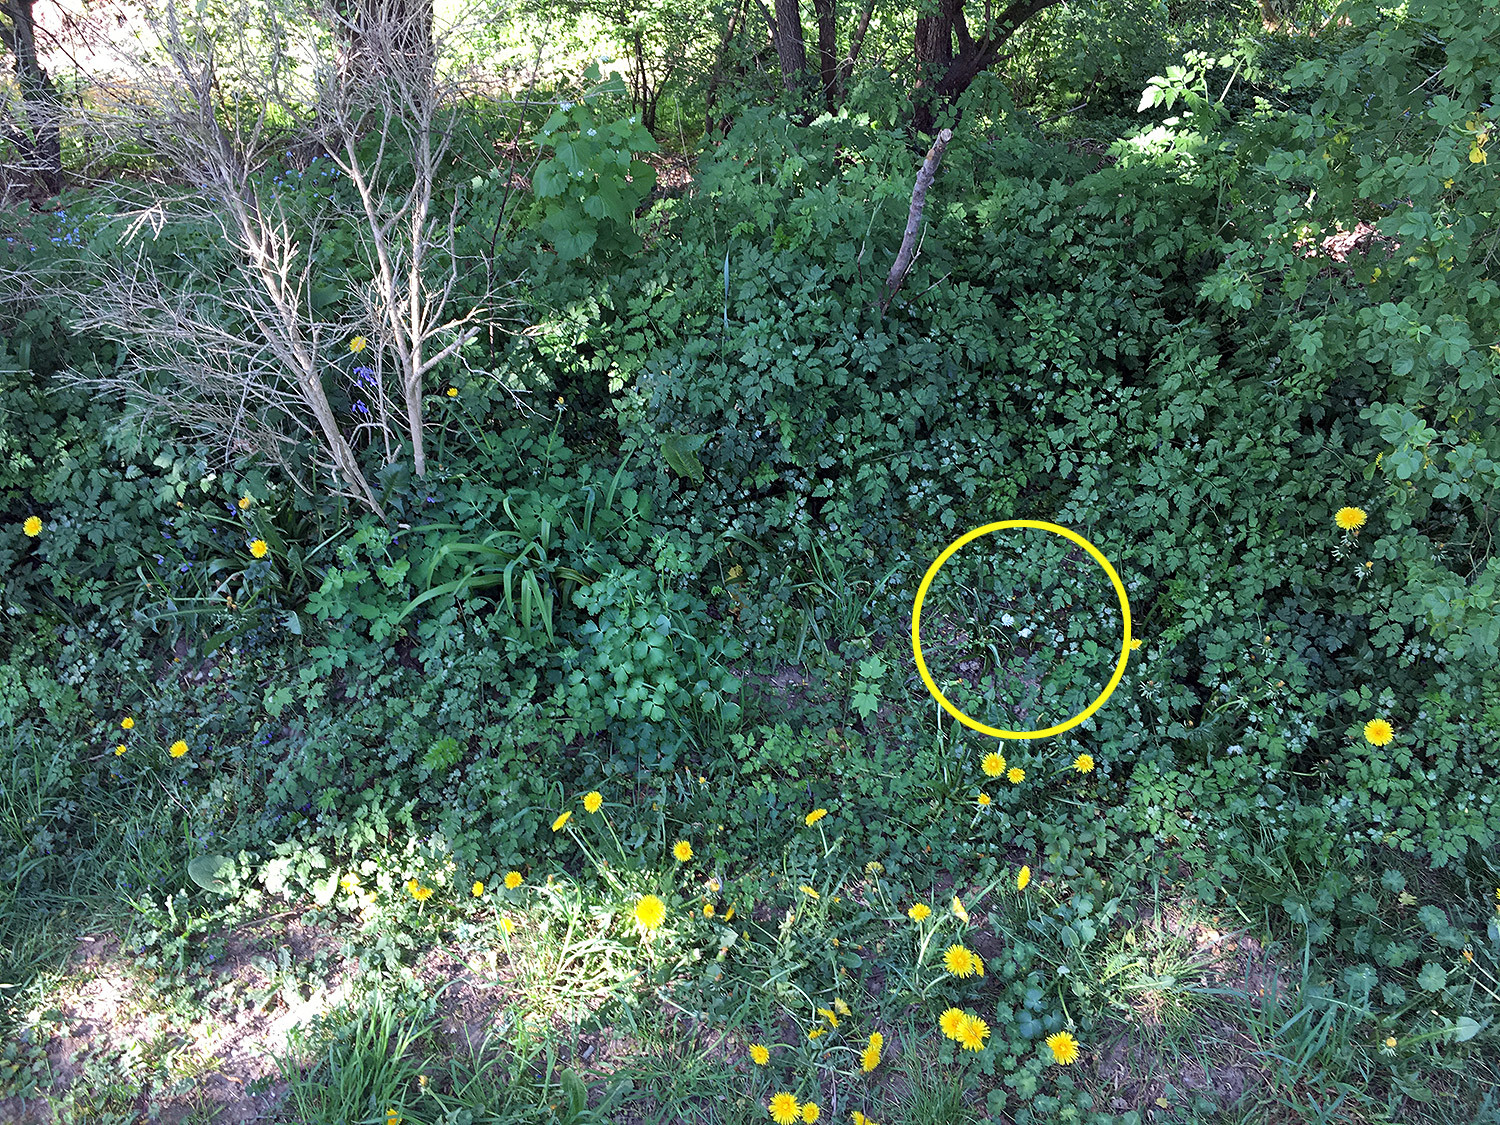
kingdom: Plantae
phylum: Tracheophyta
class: Liliopsida
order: Asparagales
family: Amaryllidaceae
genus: Allium
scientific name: Allium ursinum
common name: Ramsons
